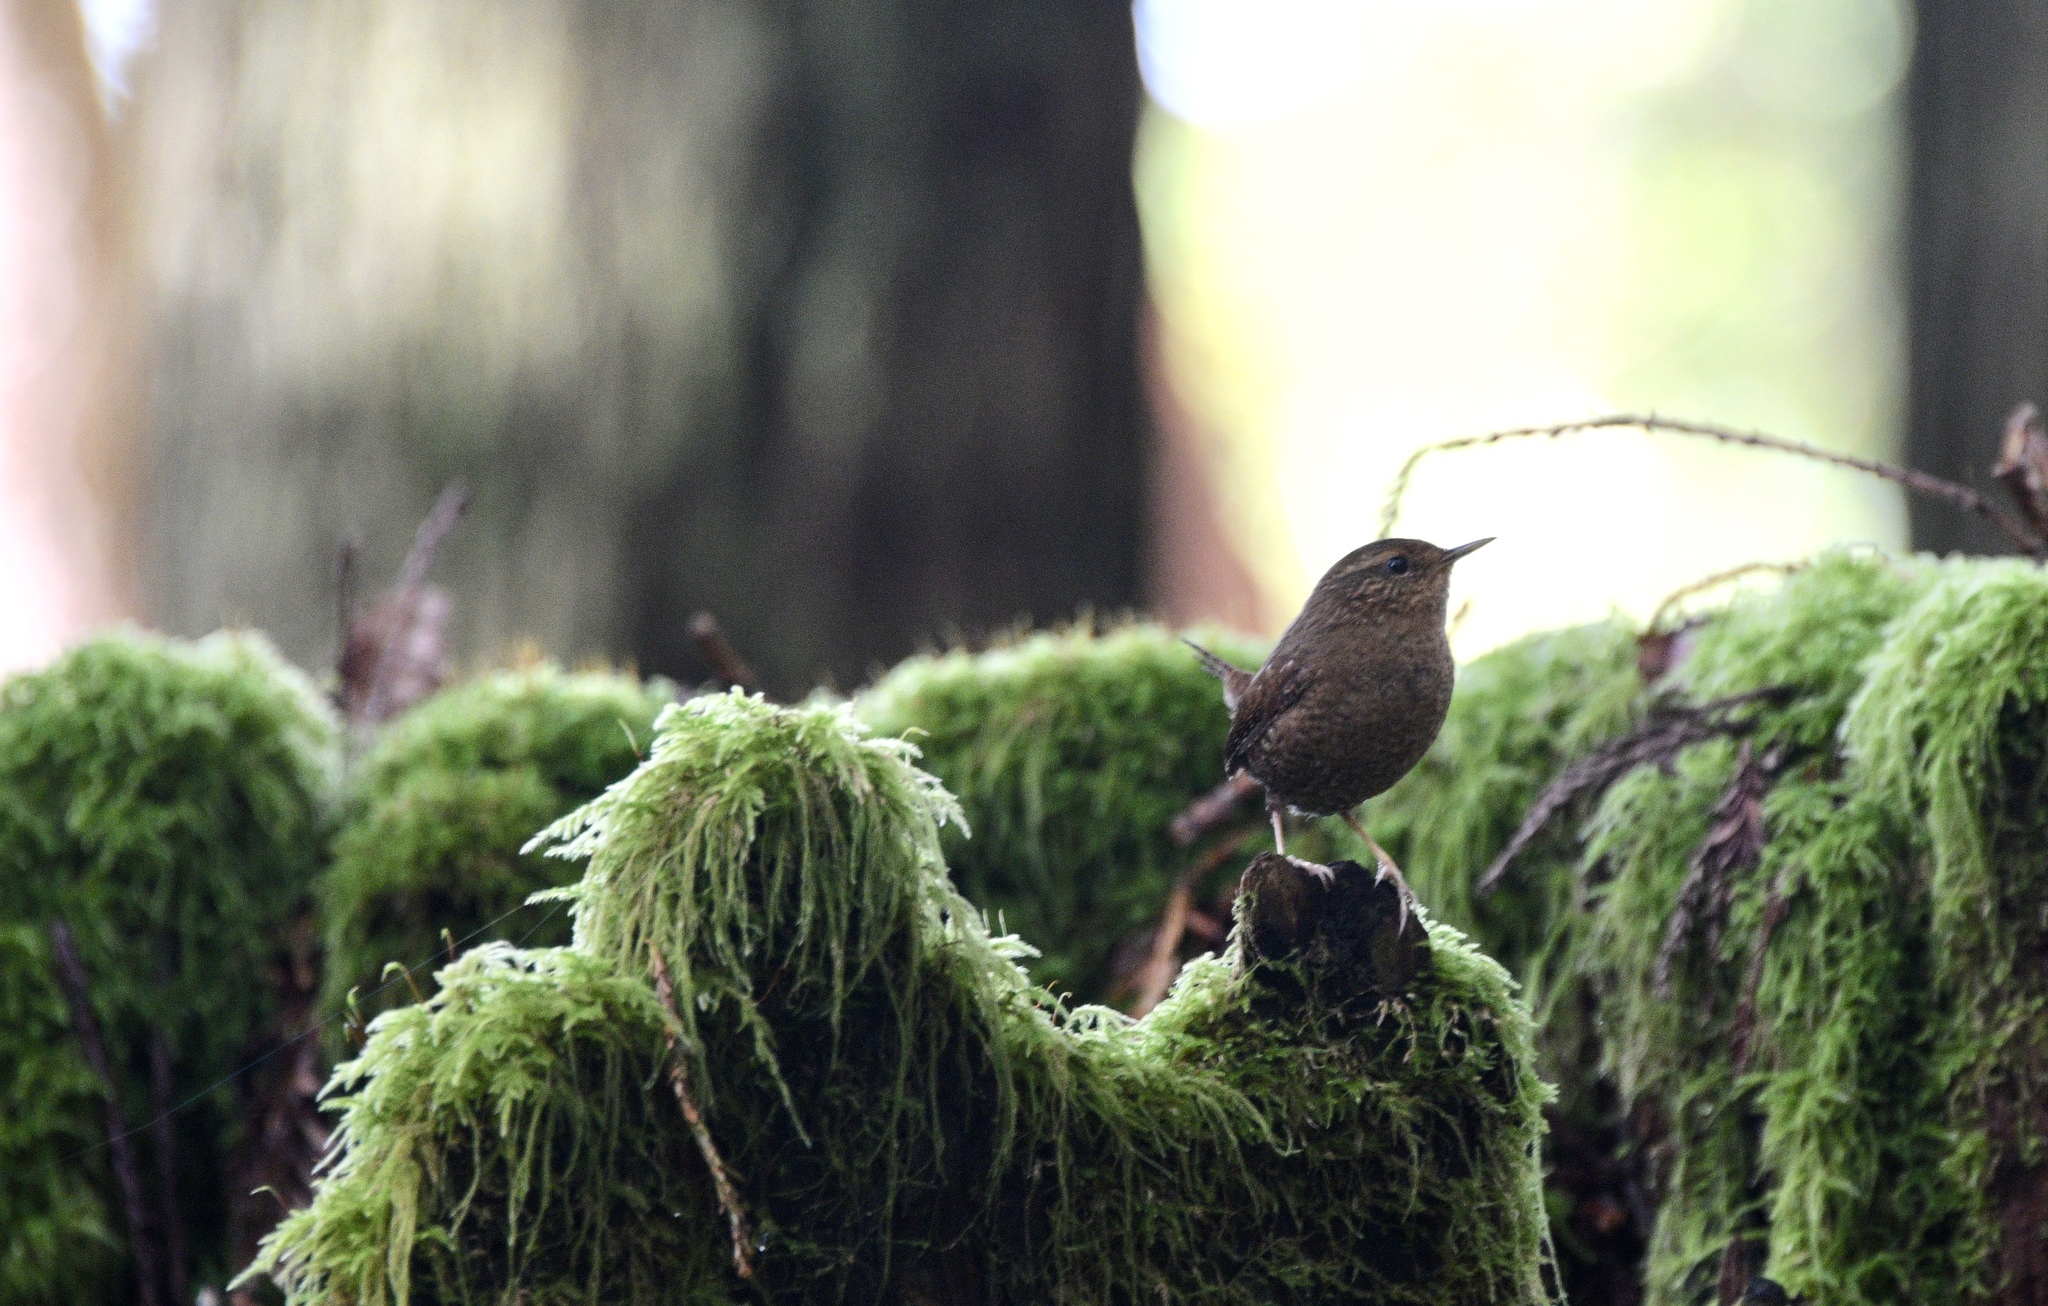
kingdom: Animalia
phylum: Chordata
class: Aves
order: Passeriformes
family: Troglodytidae
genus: Troglodytes
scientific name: Troglodytes pacificus
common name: Pacific wren
